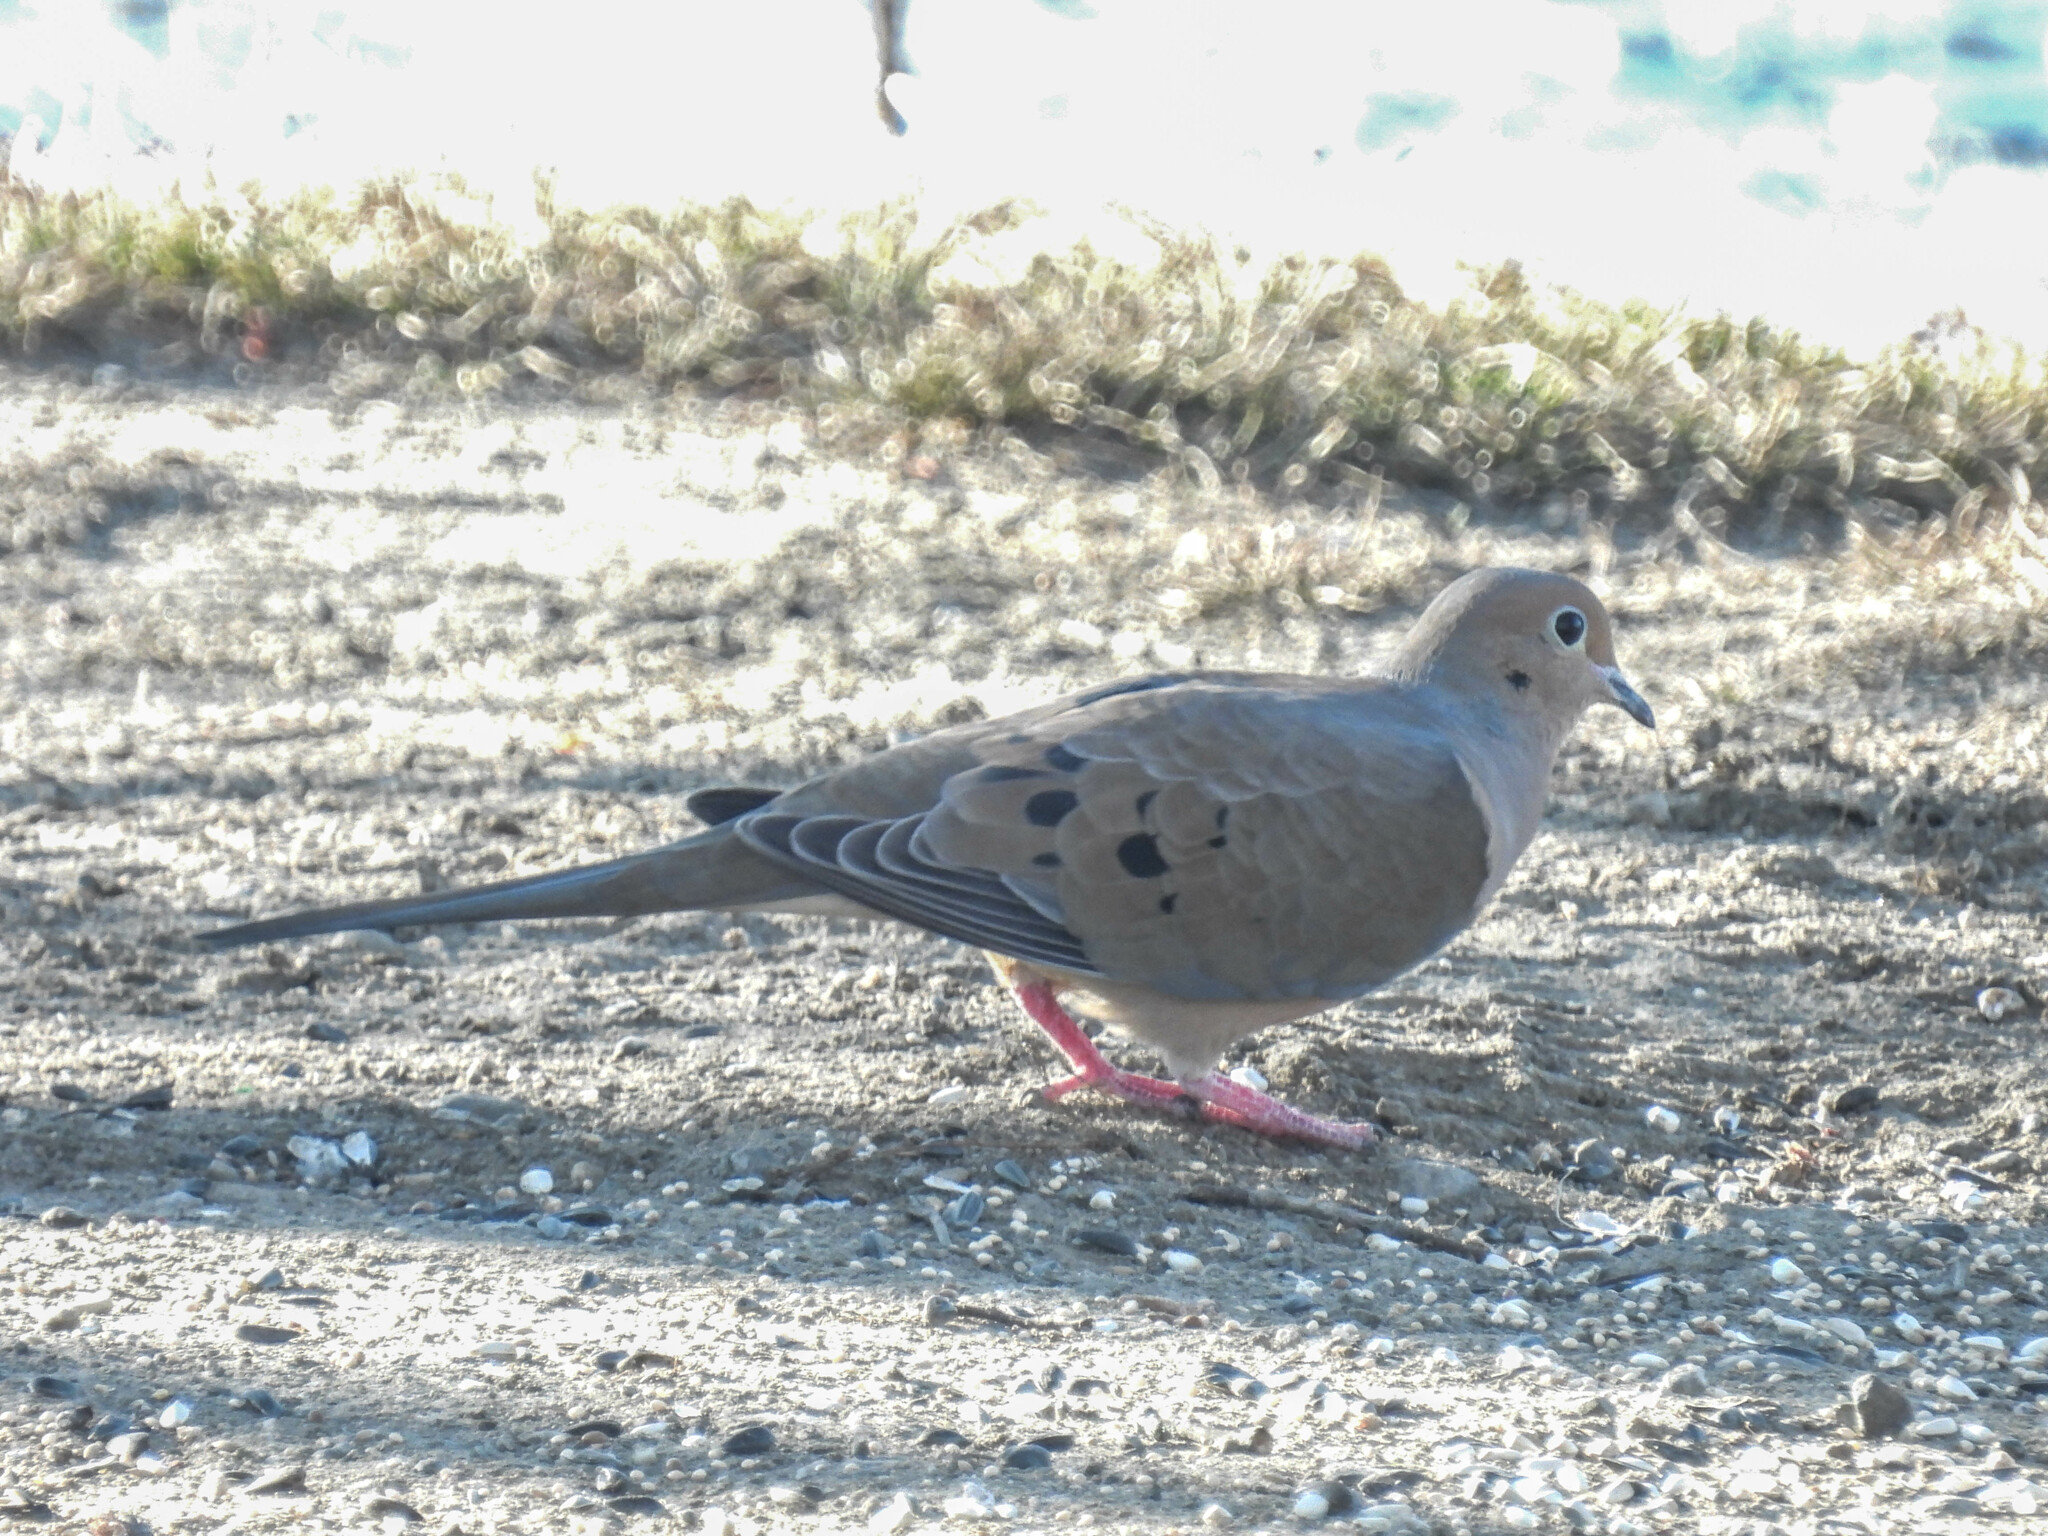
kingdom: Animalia
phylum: Chordata
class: Aves
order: Columbiformes
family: Columbidae
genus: Zenaida
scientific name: Zenaida macroura
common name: Mourning dove
